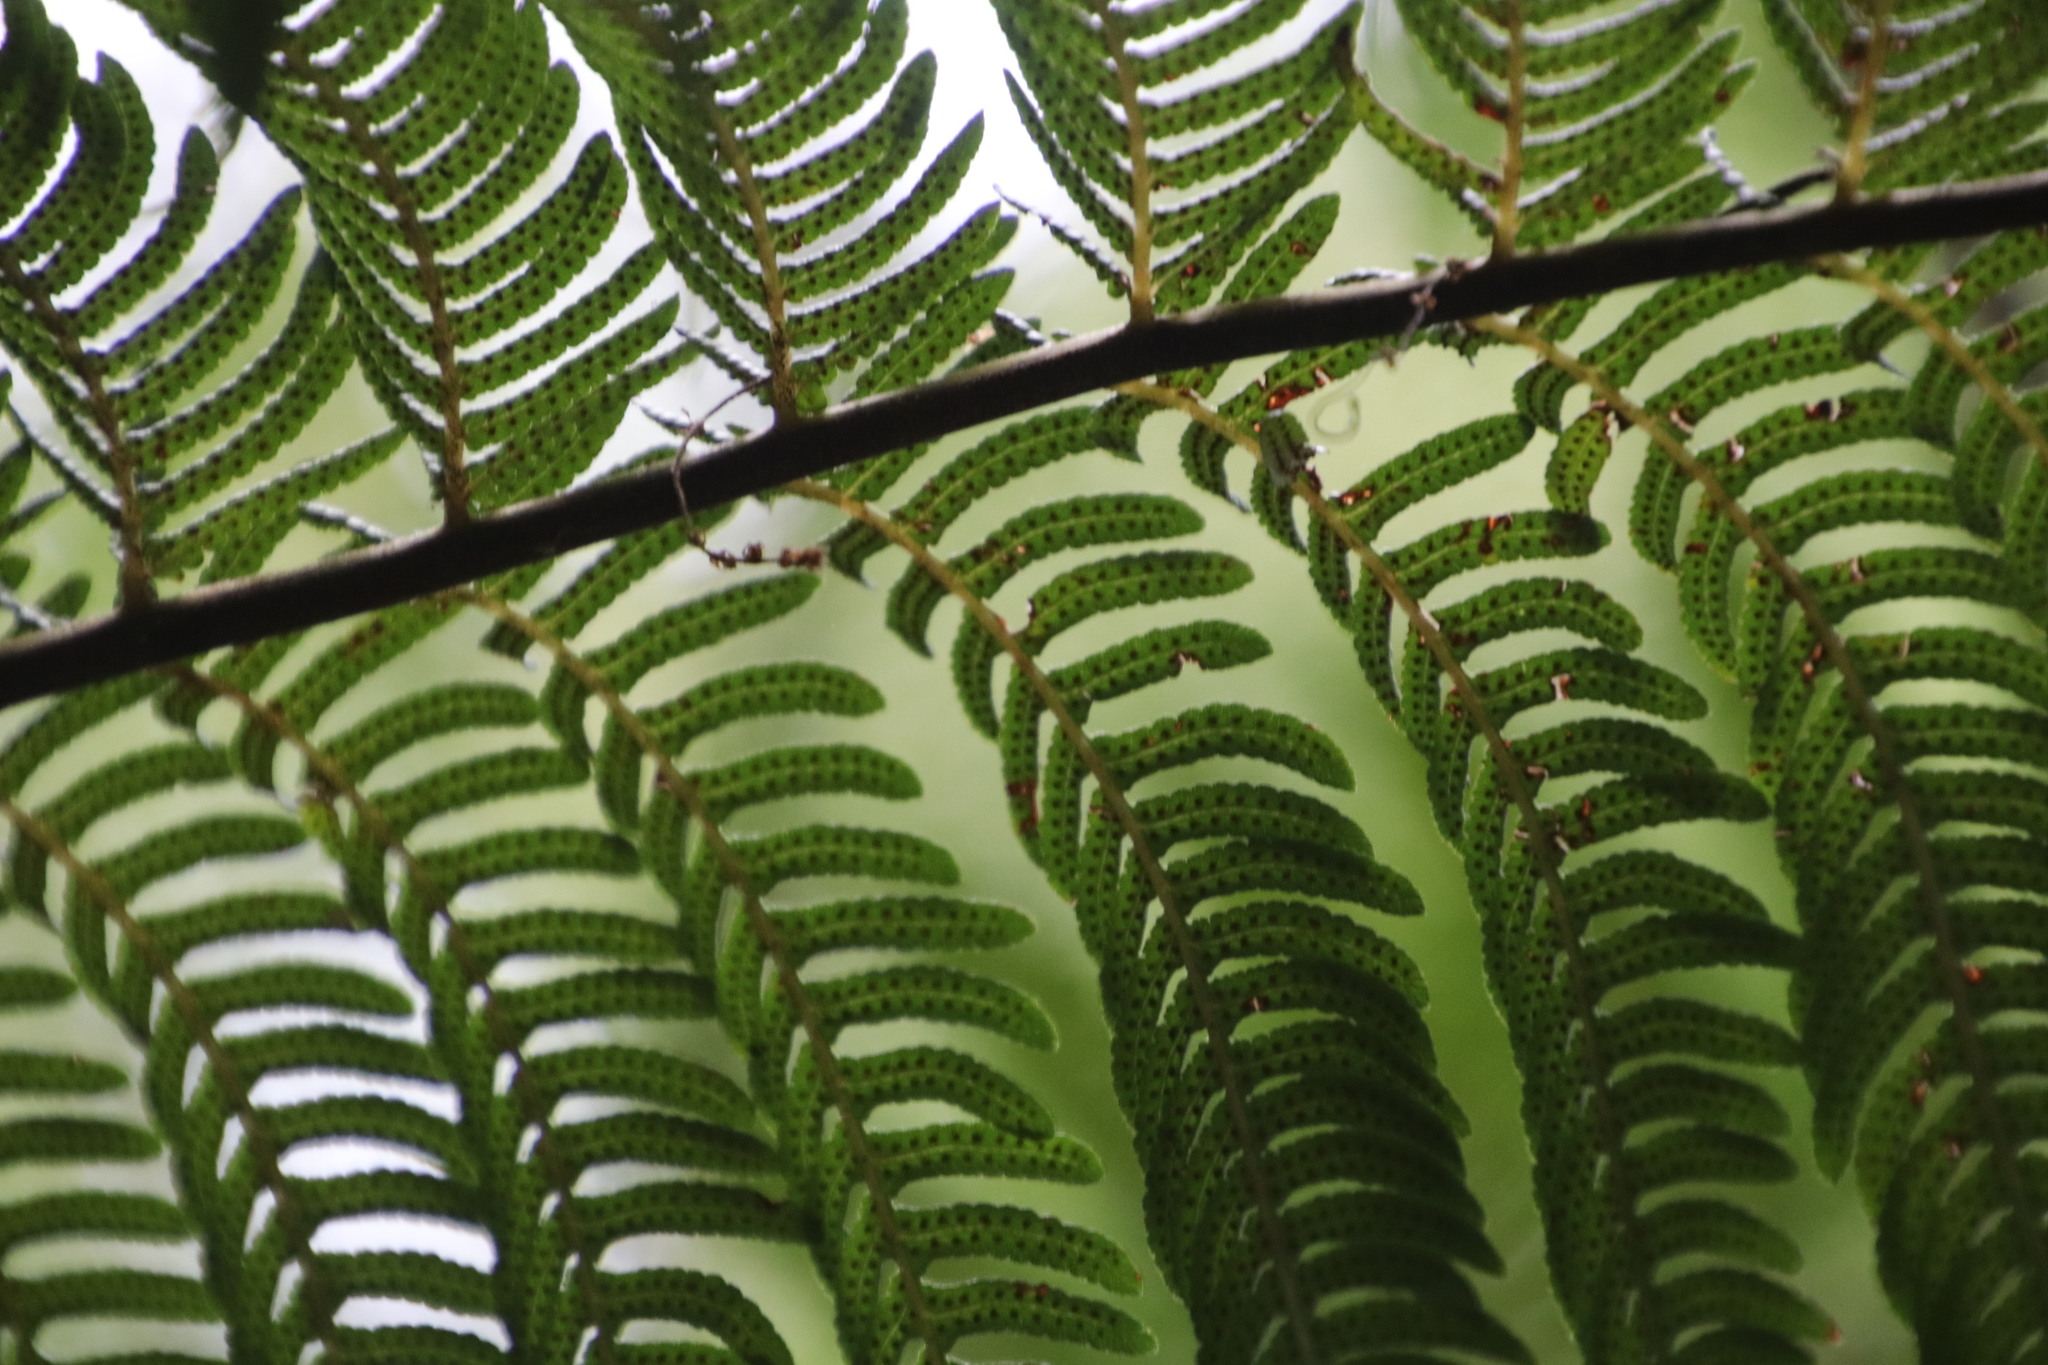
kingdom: Plantae
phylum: Tracheophyta
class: Polypodiopsida
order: Cyatheales
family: Cyatheaceae
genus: Sphaeropteris
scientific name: Sphaeropteris cooperi
